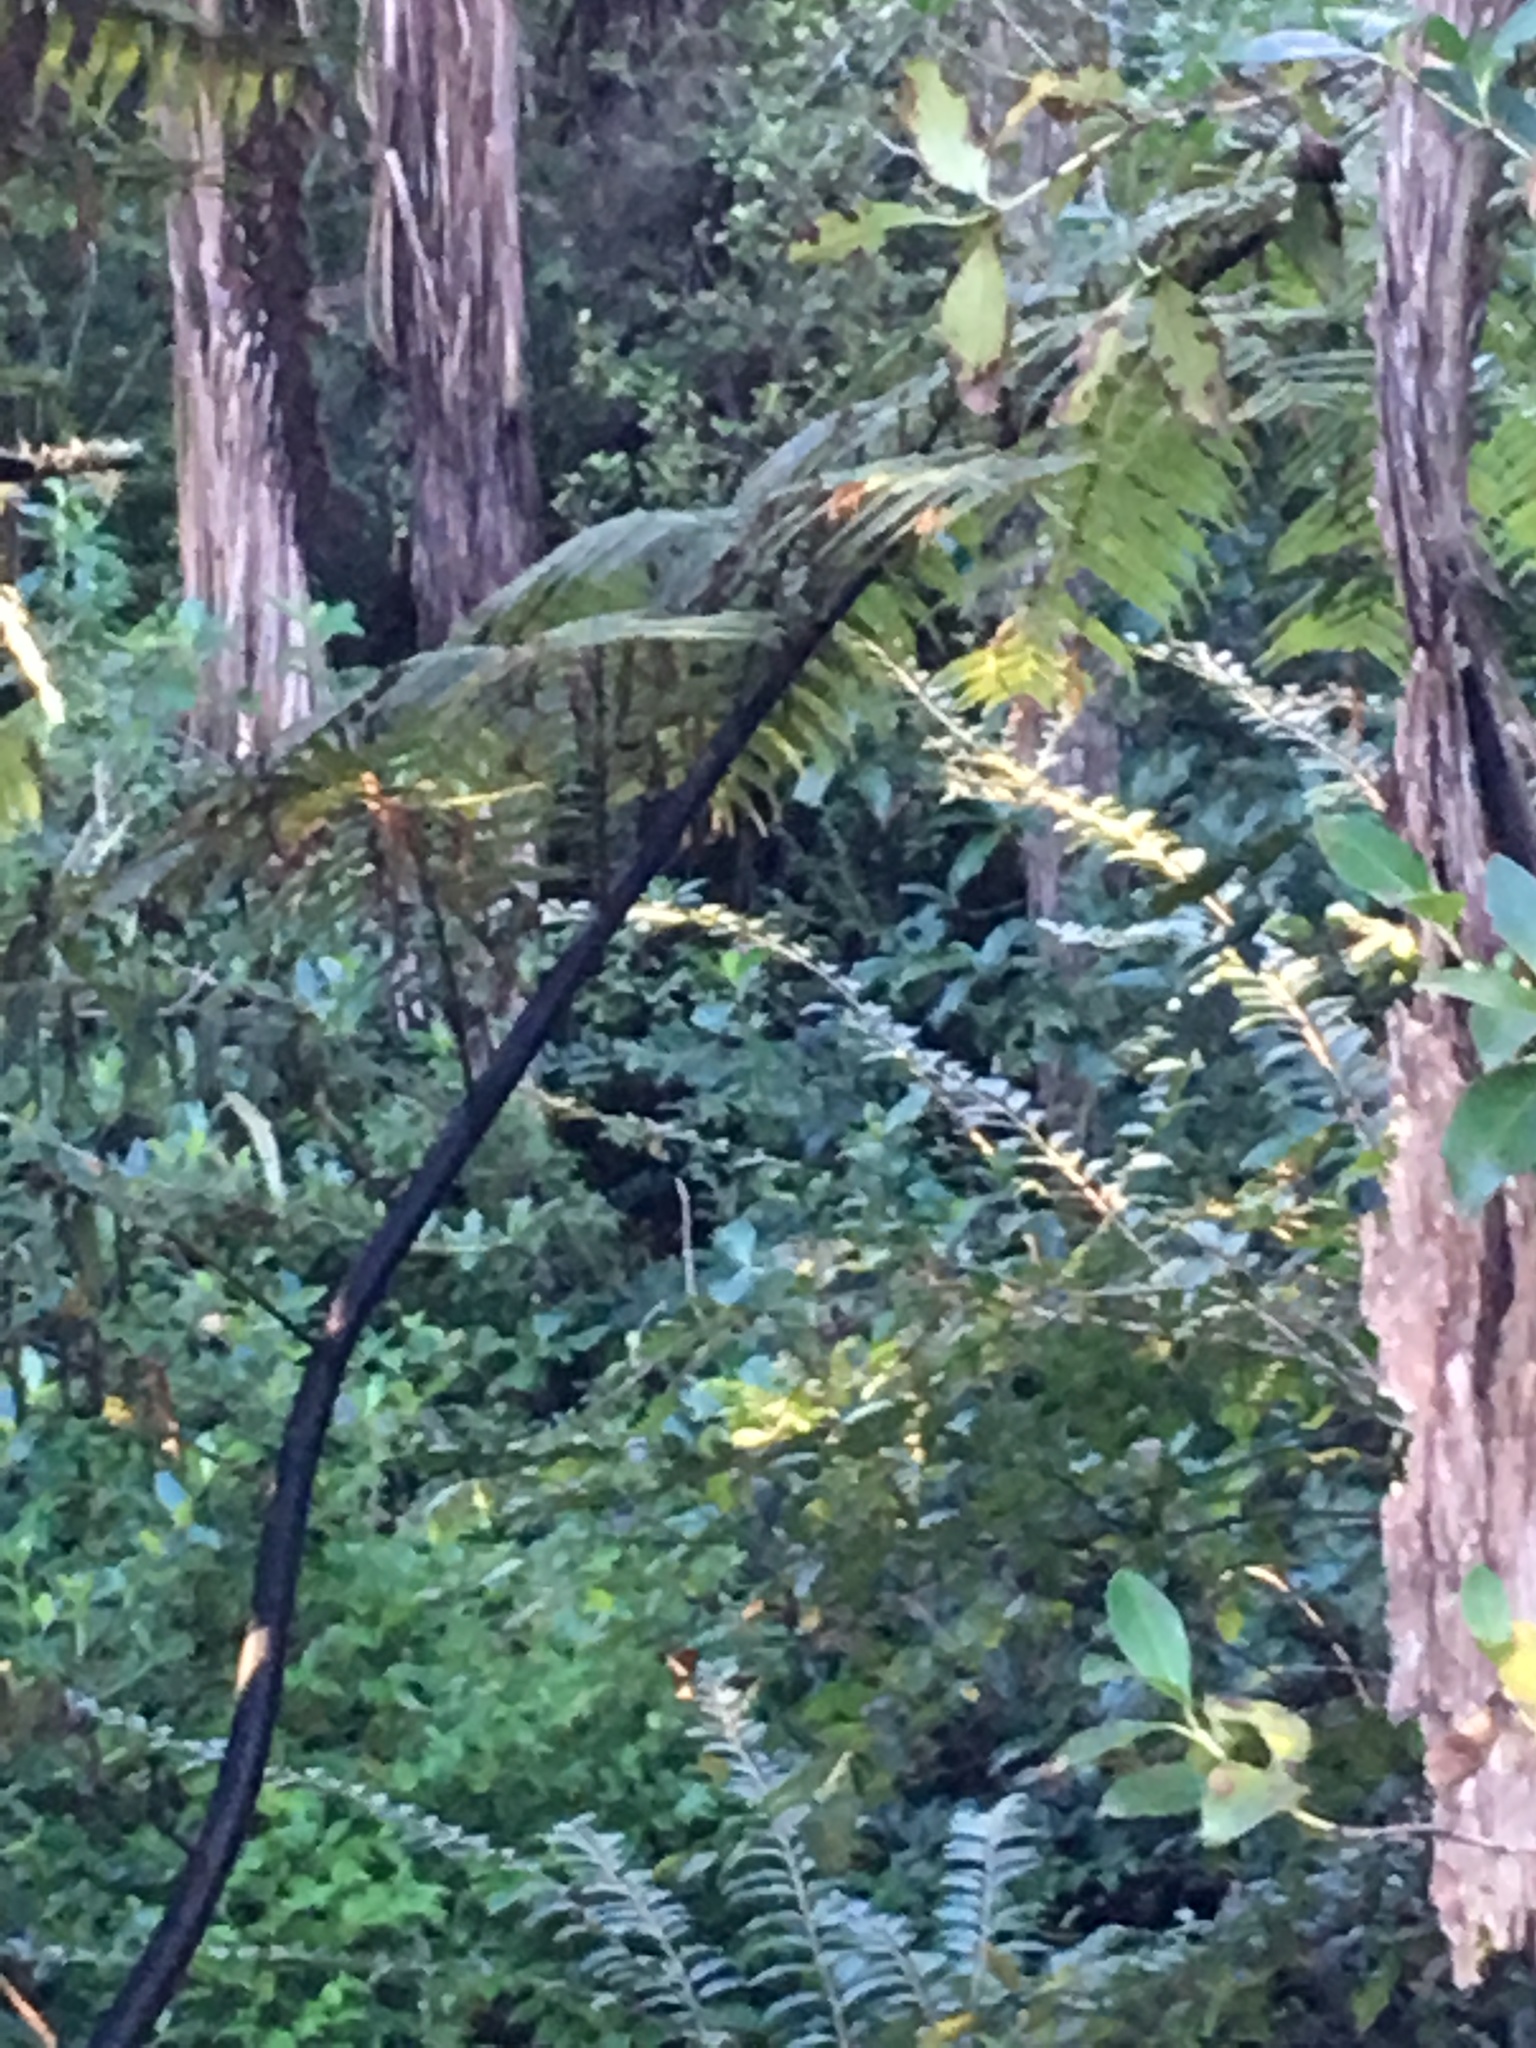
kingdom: Plantae
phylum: Tracheophyta
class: Polypodiopsida
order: Cyatheales
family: Cyatheaceae
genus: Sphaeropteris
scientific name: Sphaeropteris medullaris
